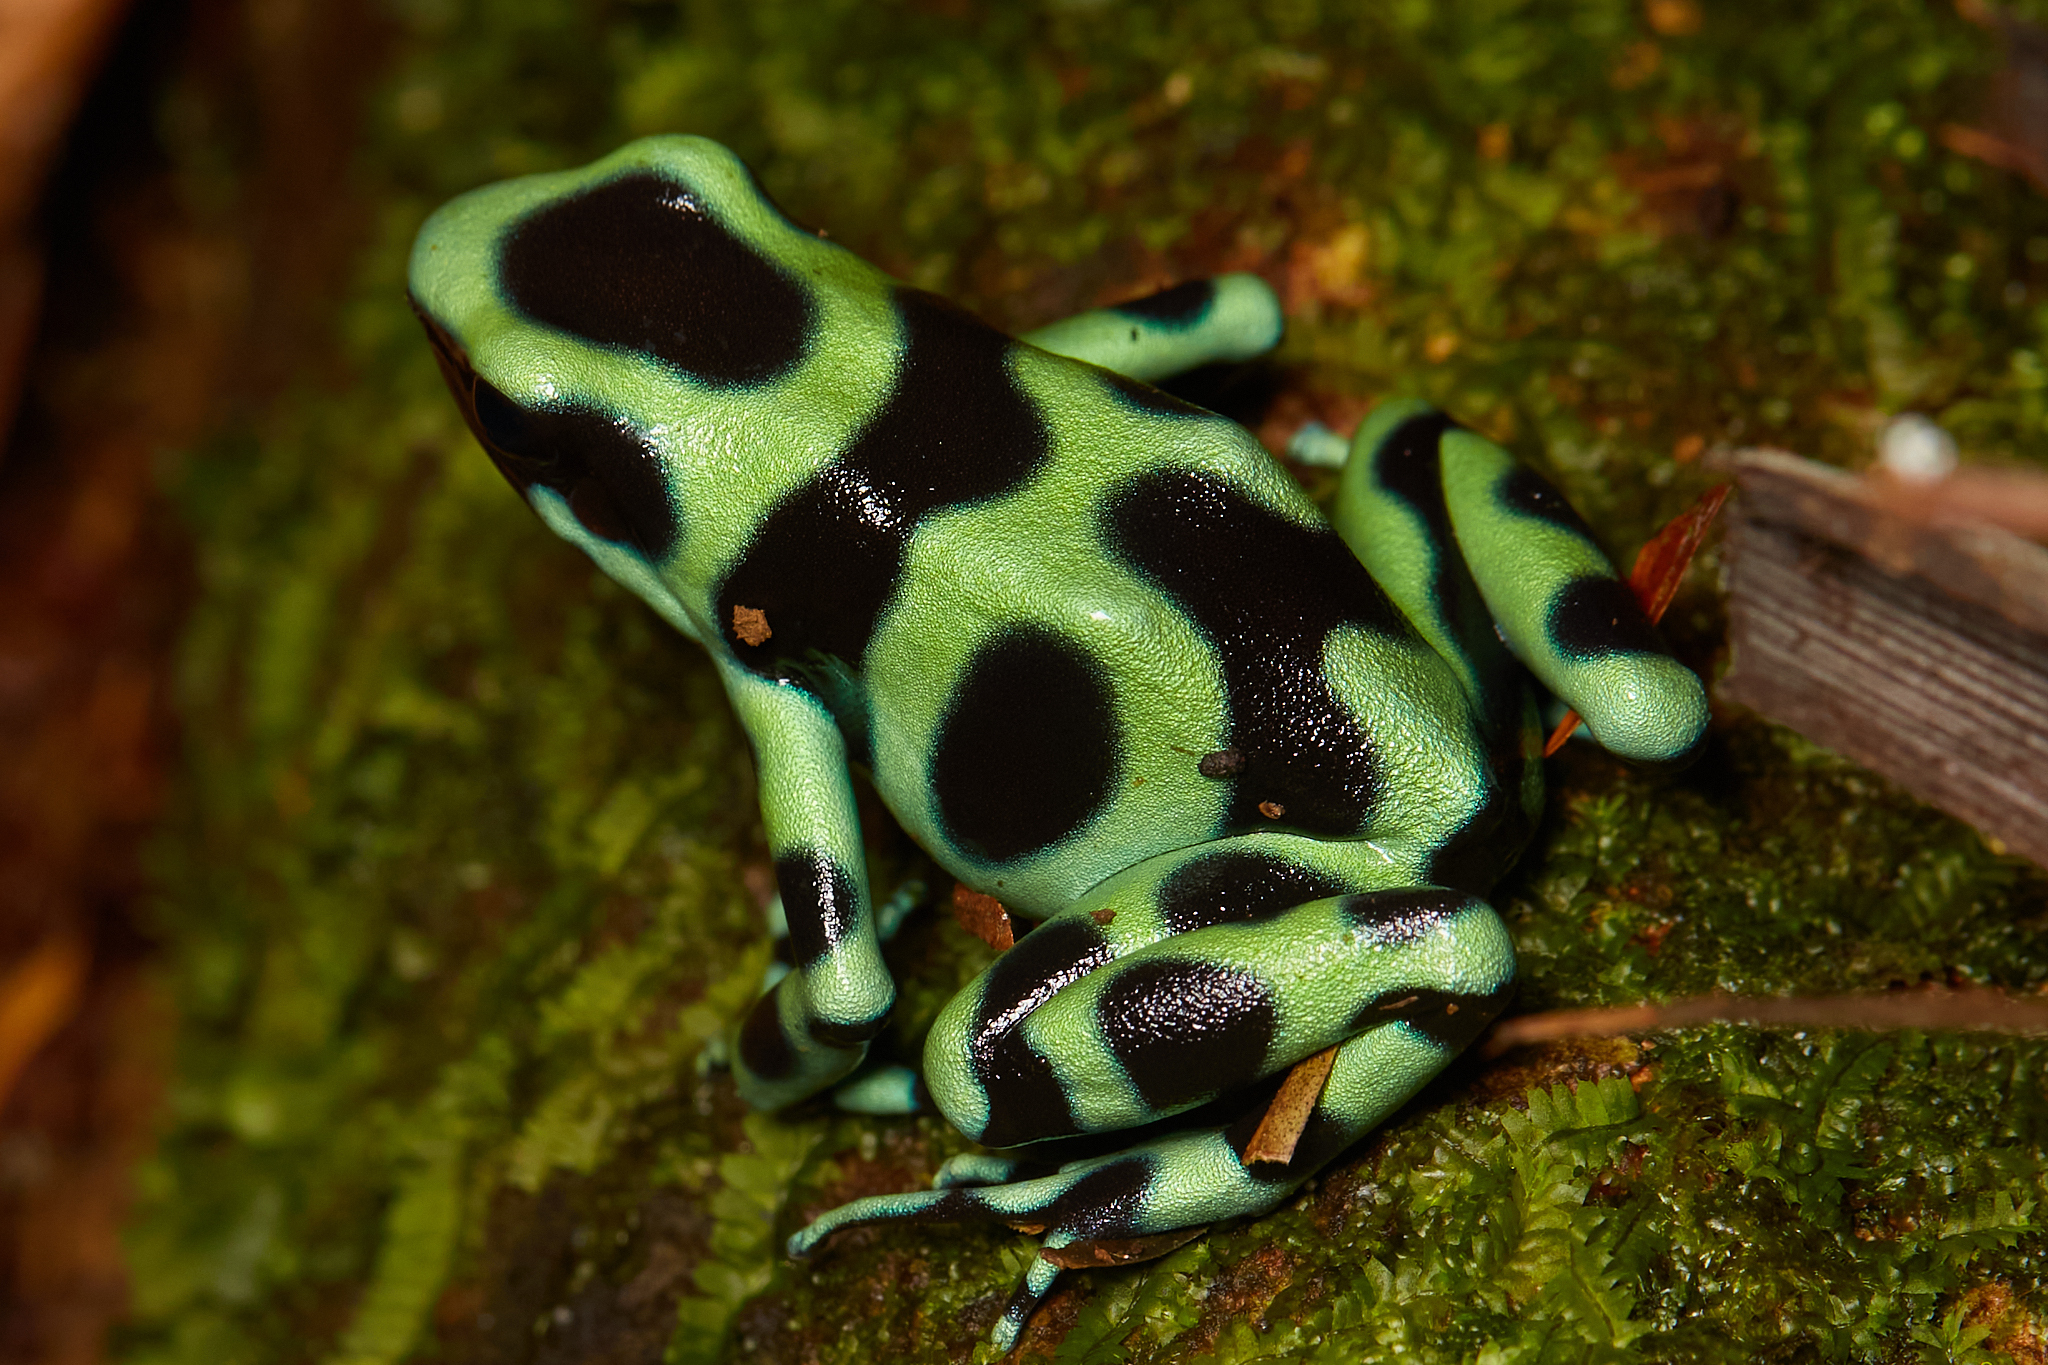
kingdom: Animalia
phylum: Chordata
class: Amphibia
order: Anura
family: Dendrobatidae
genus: Dendrobates
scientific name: Dendrobates auratus
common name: Green and black poison dart frog
